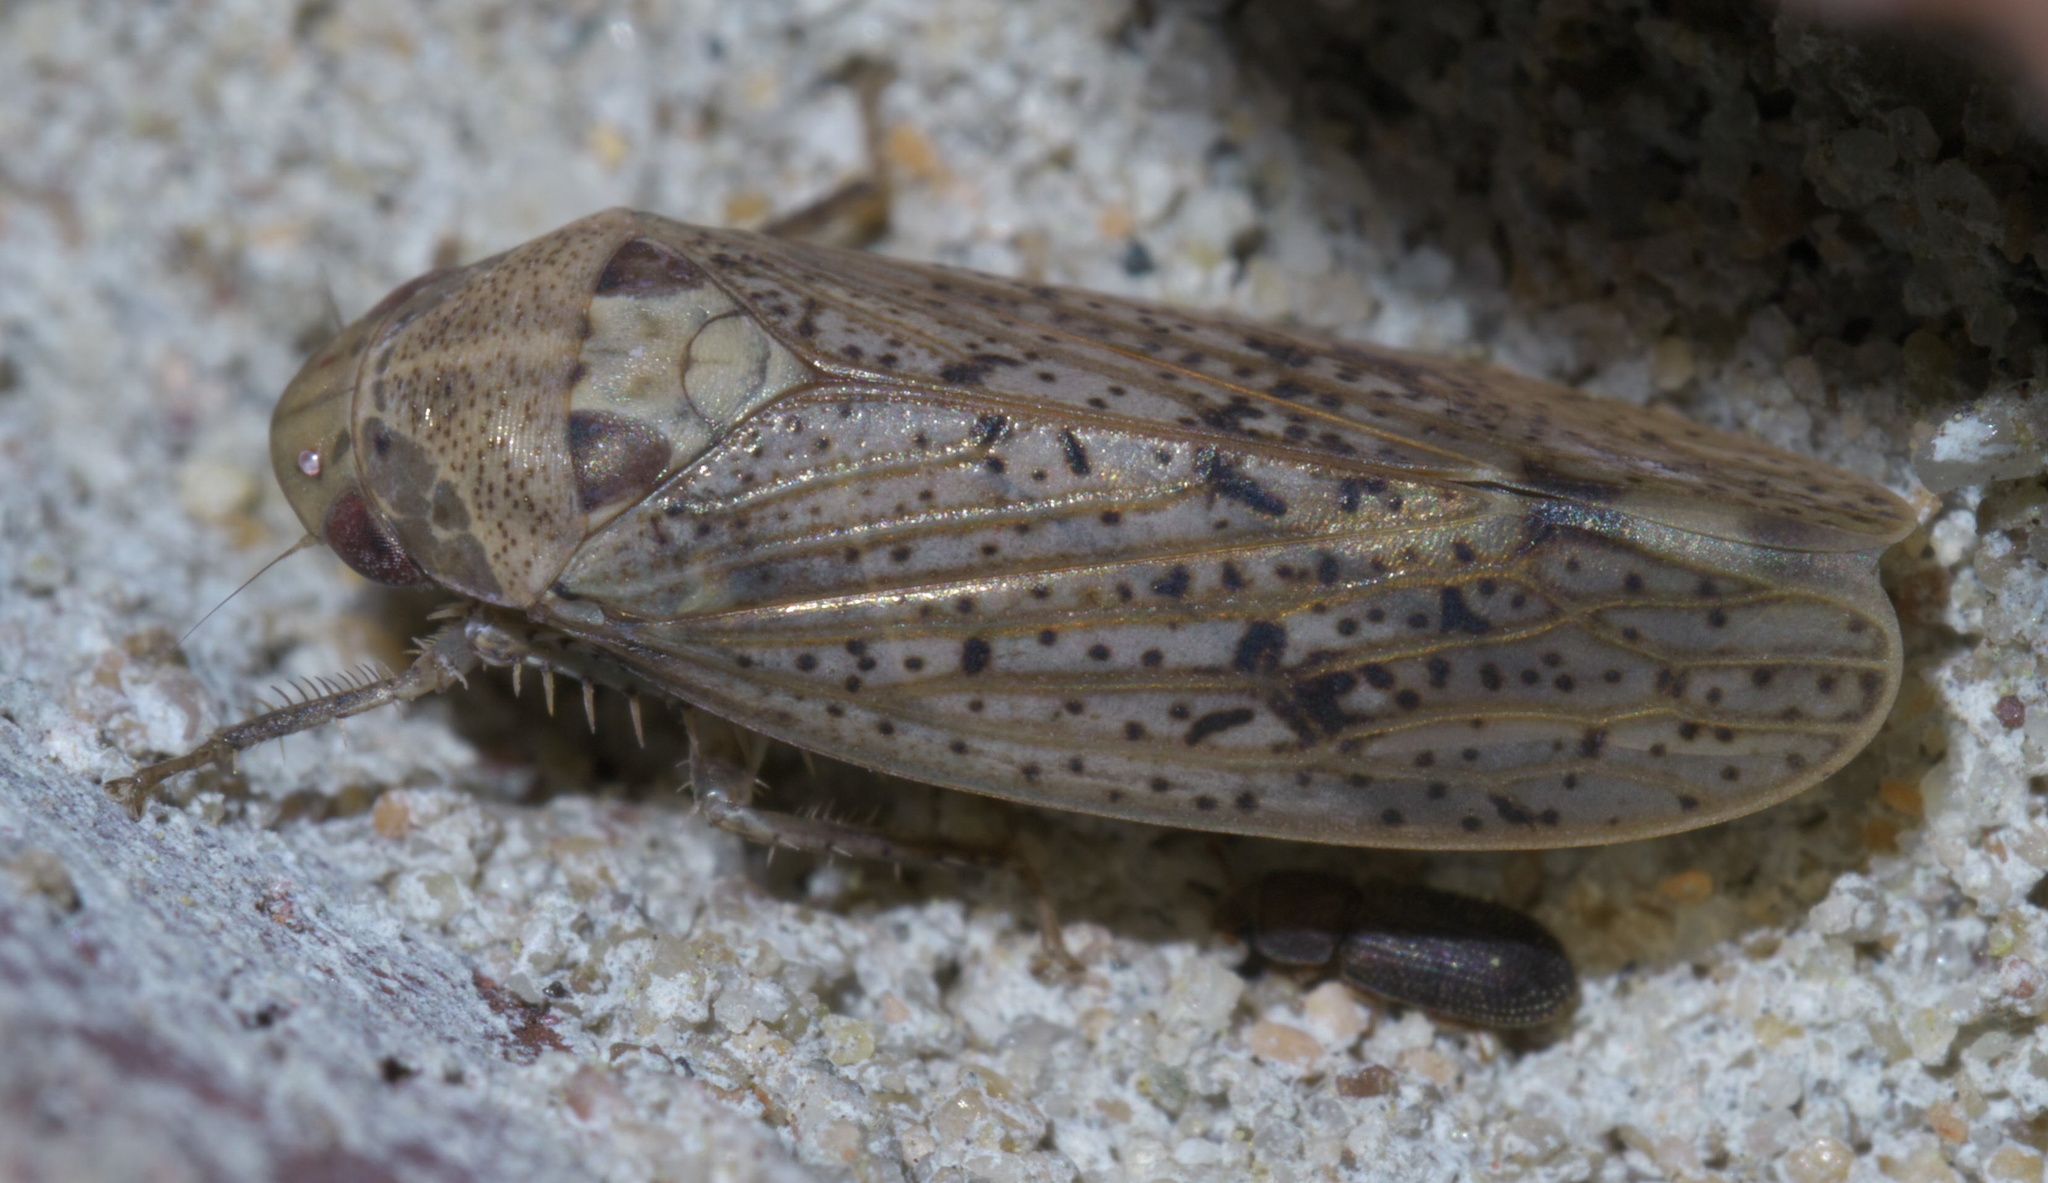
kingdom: Animalia
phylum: Arthropoda
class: Insecta
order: Hemiptera
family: Cicadellidae
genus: Ponana
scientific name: Ponana puncticollis
